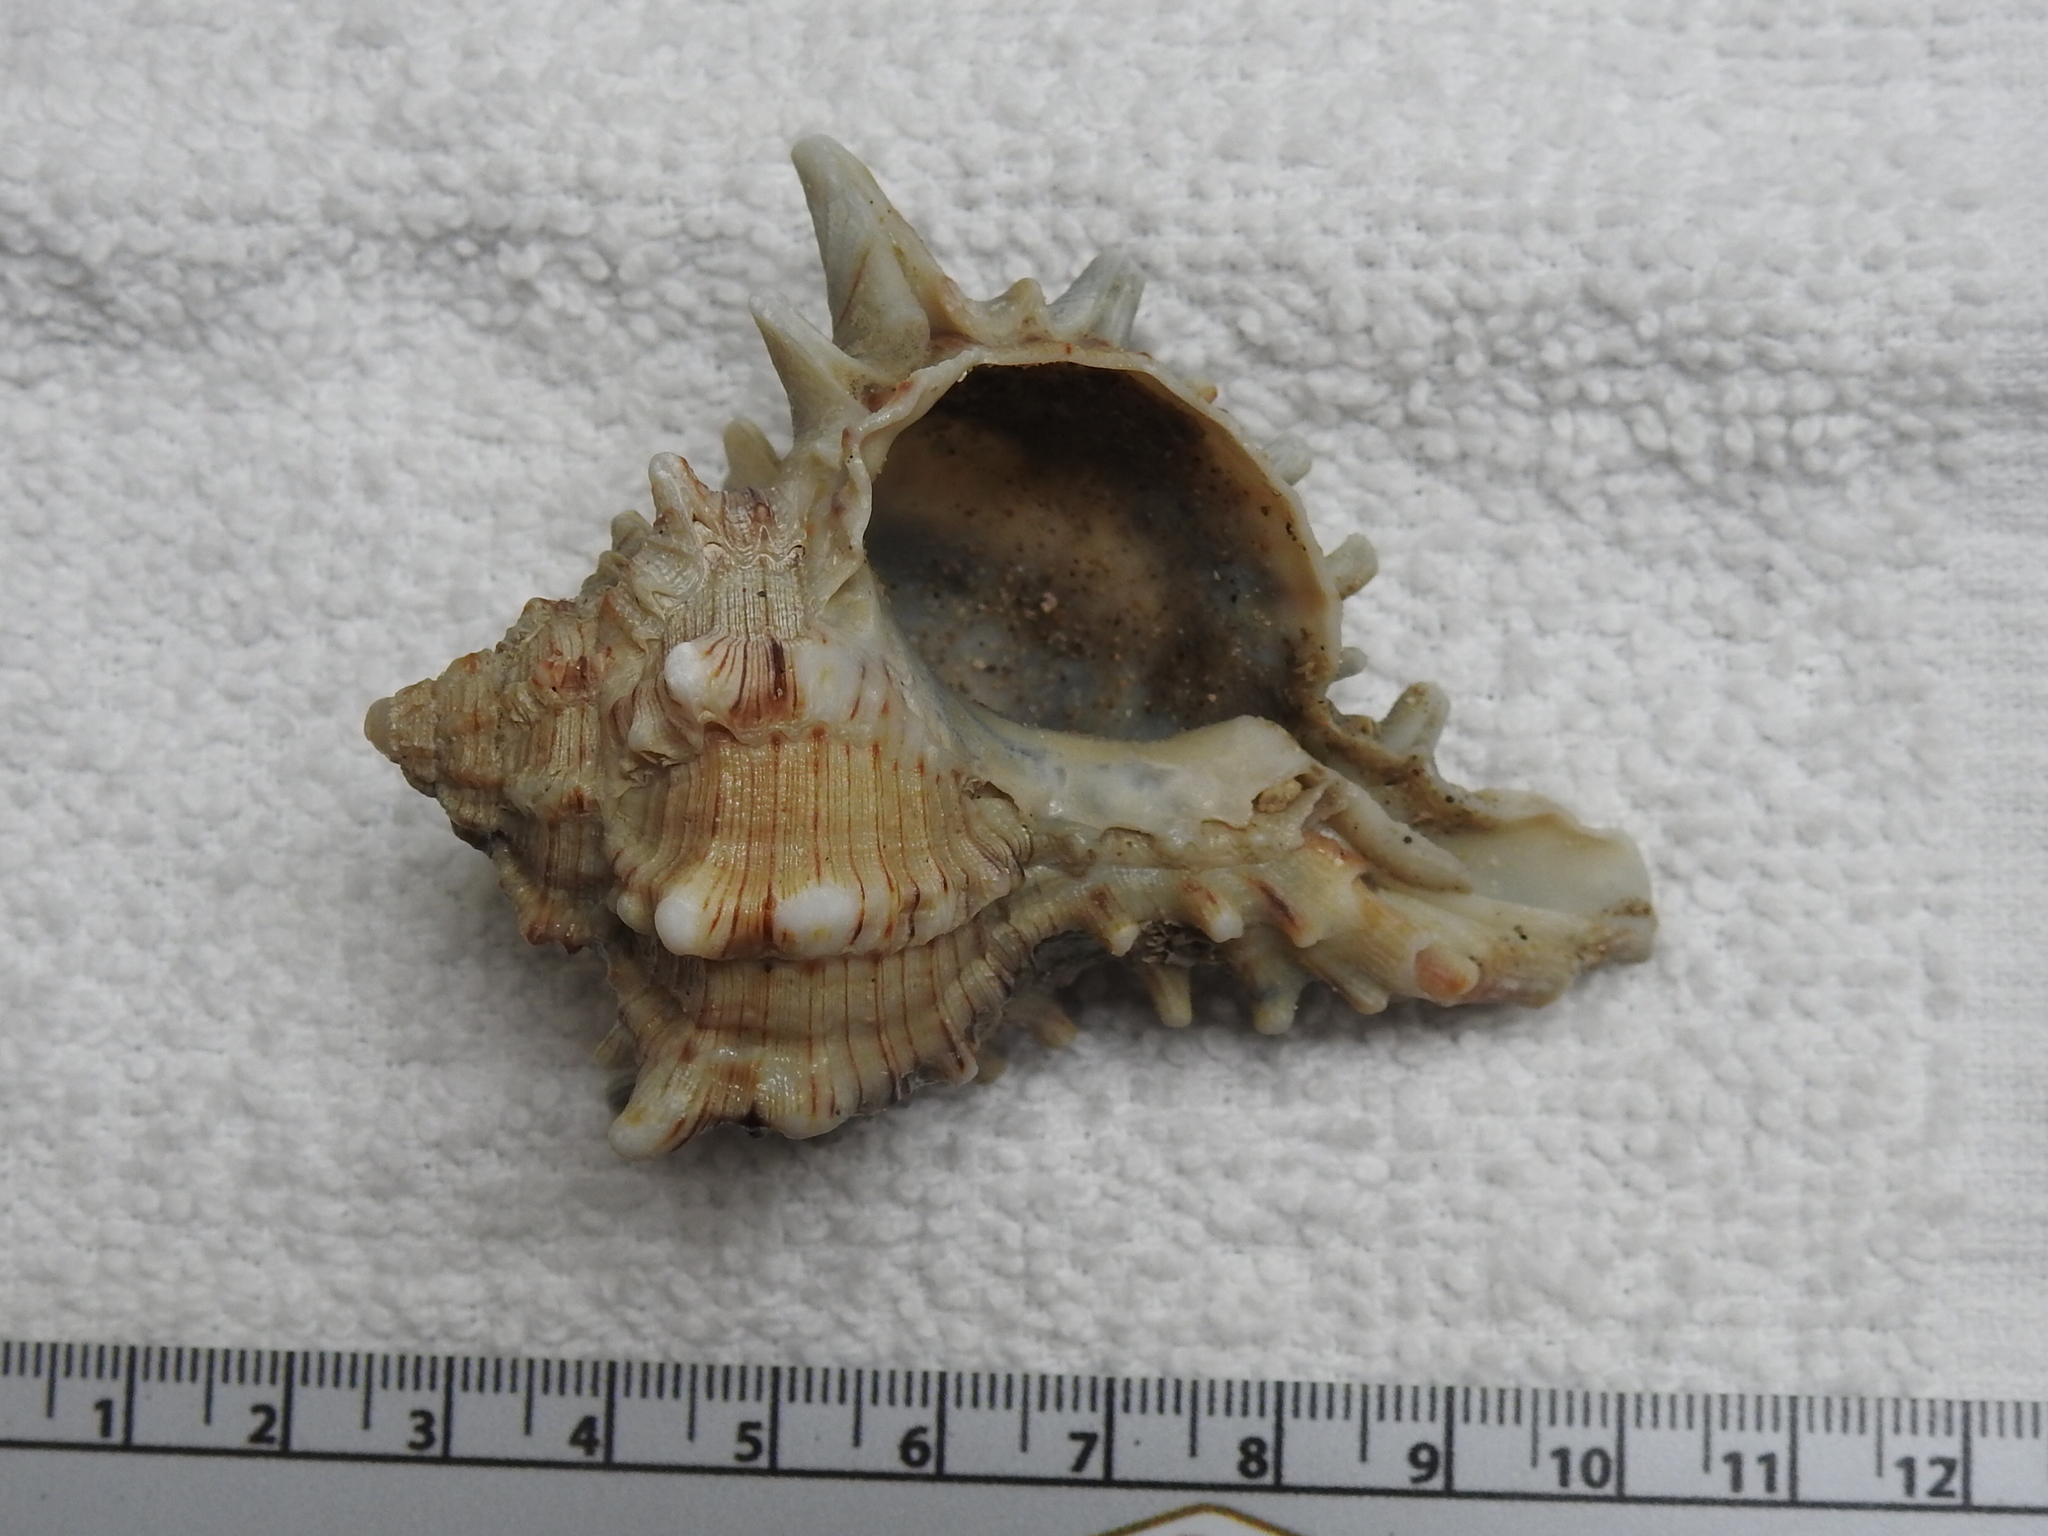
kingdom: Animalia
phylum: Mollusca
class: Gastropoda
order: Neogastropoda
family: Muricidae
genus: Hexaplex
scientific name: Hexaplex fulvescens
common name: Tawny murex
